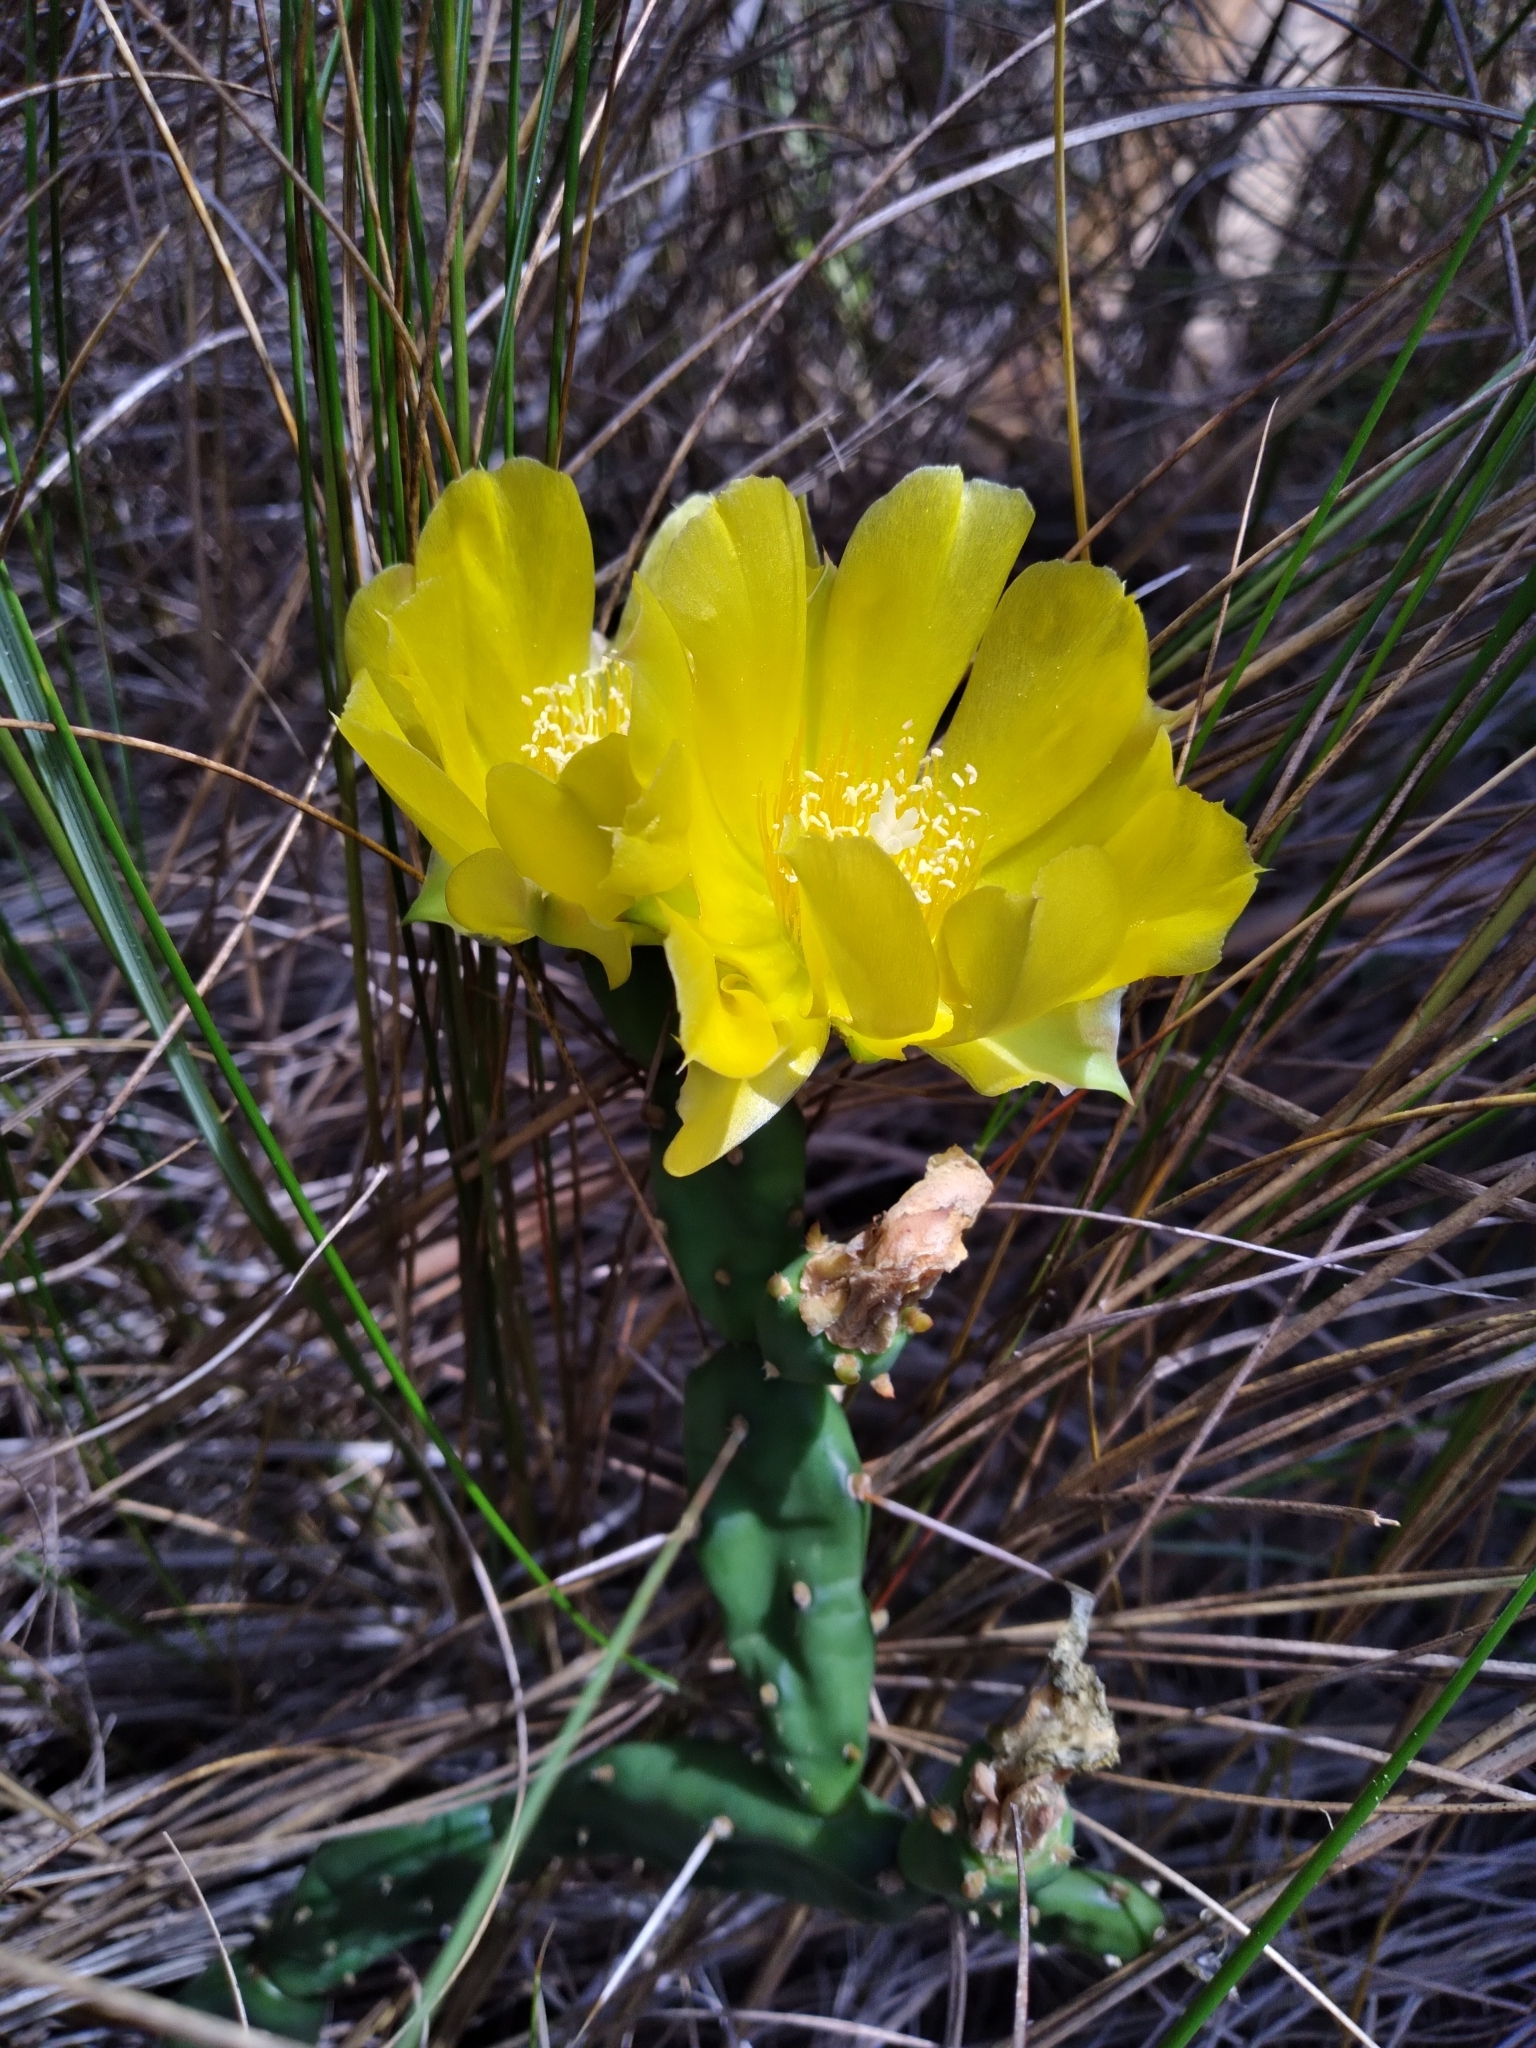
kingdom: Plantae
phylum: Tracheophyta
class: Magnoliopsida
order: Caryophyllales
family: Cactaceae
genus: Opuntia
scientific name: Opuntia drummondii
